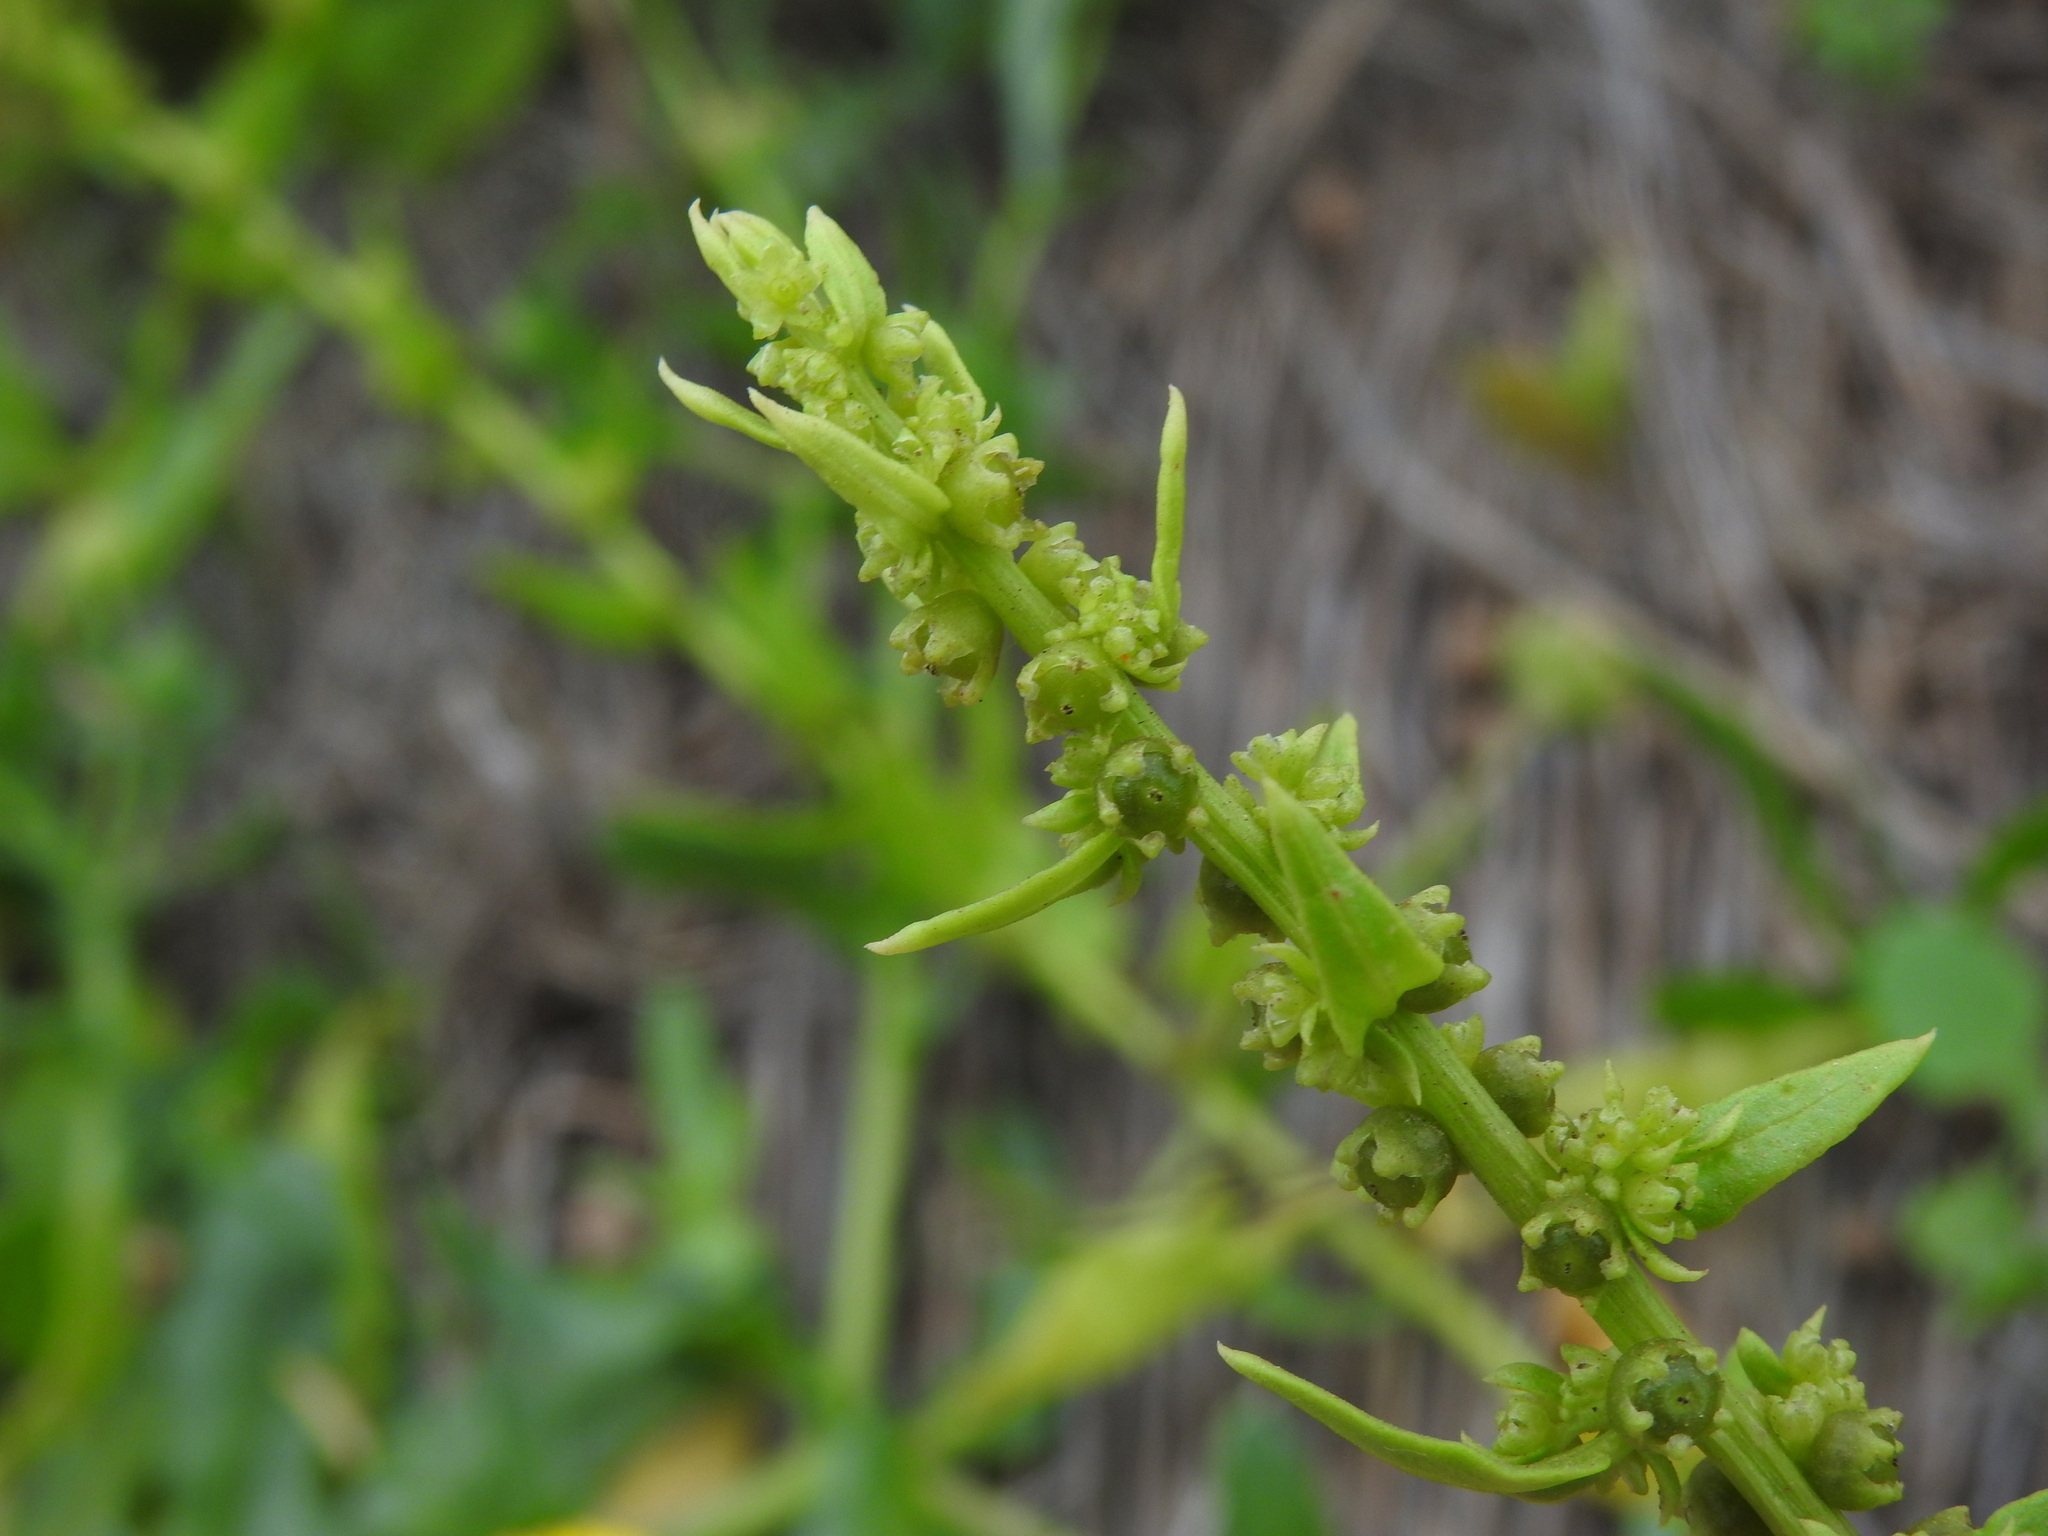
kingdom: Plantae
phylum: Tracheophyta
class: Magnoliopsida
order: Caryophyllales
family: Amaranthaceae
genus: Patellifolia
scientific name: Patellifolia procumbens
